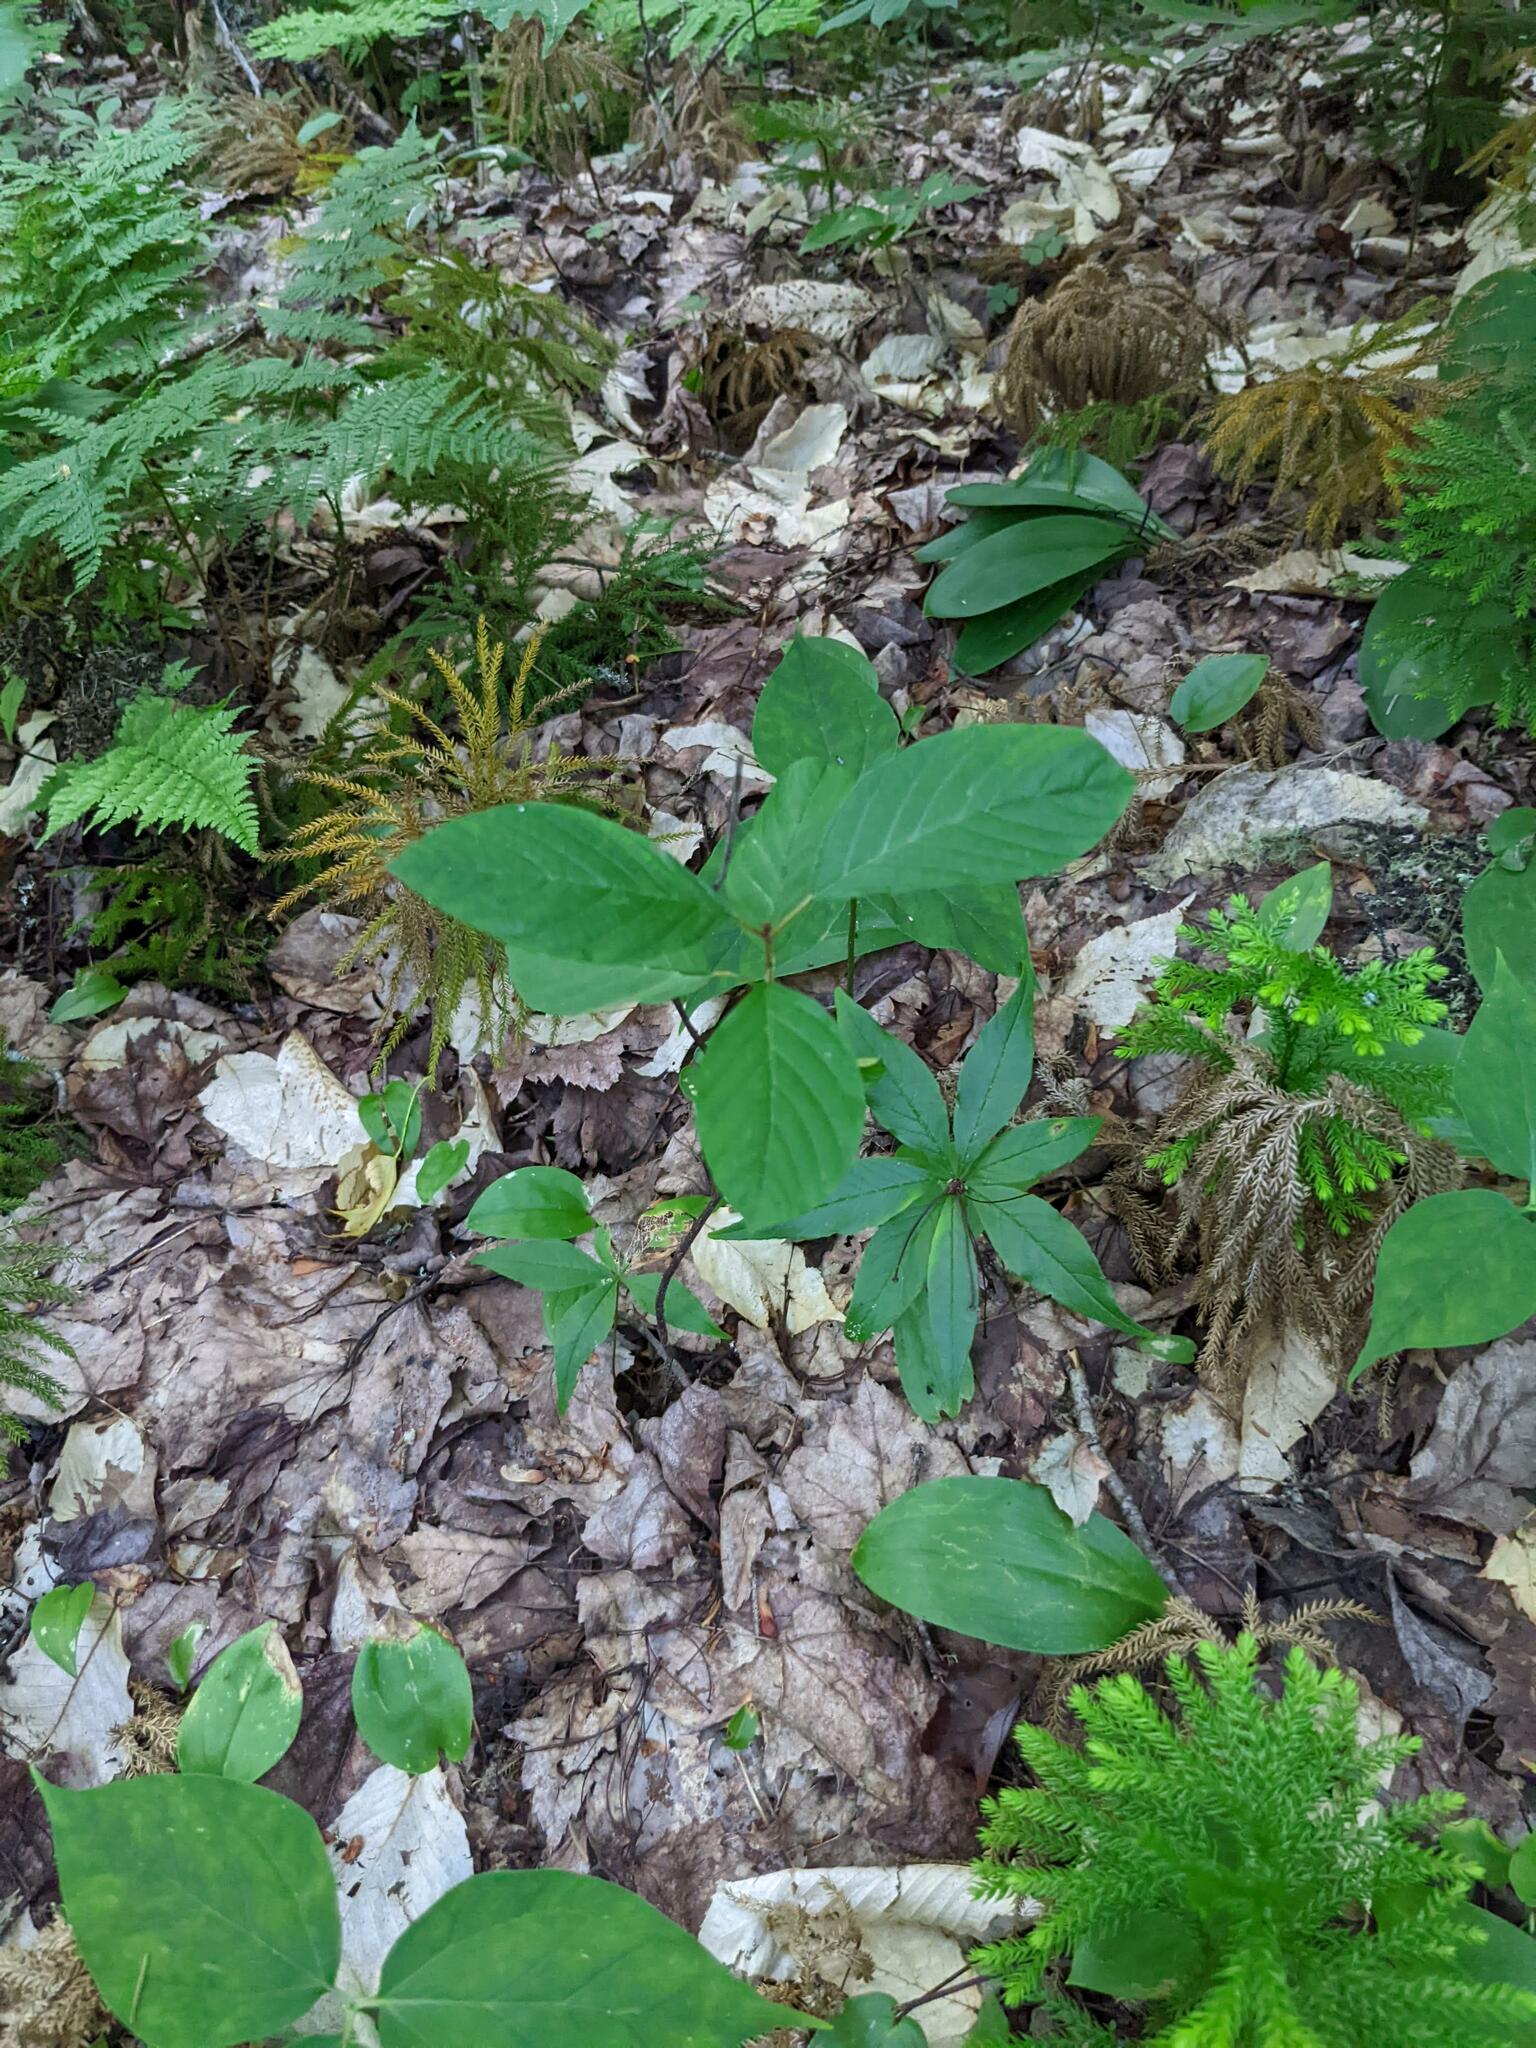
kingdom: Plantae
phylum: Tracheophyta
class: Magnoliopsida
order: Rosales
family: Rhamnaceae
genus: Frangula
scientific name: Frangula alnus
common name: Alder buckthorn
